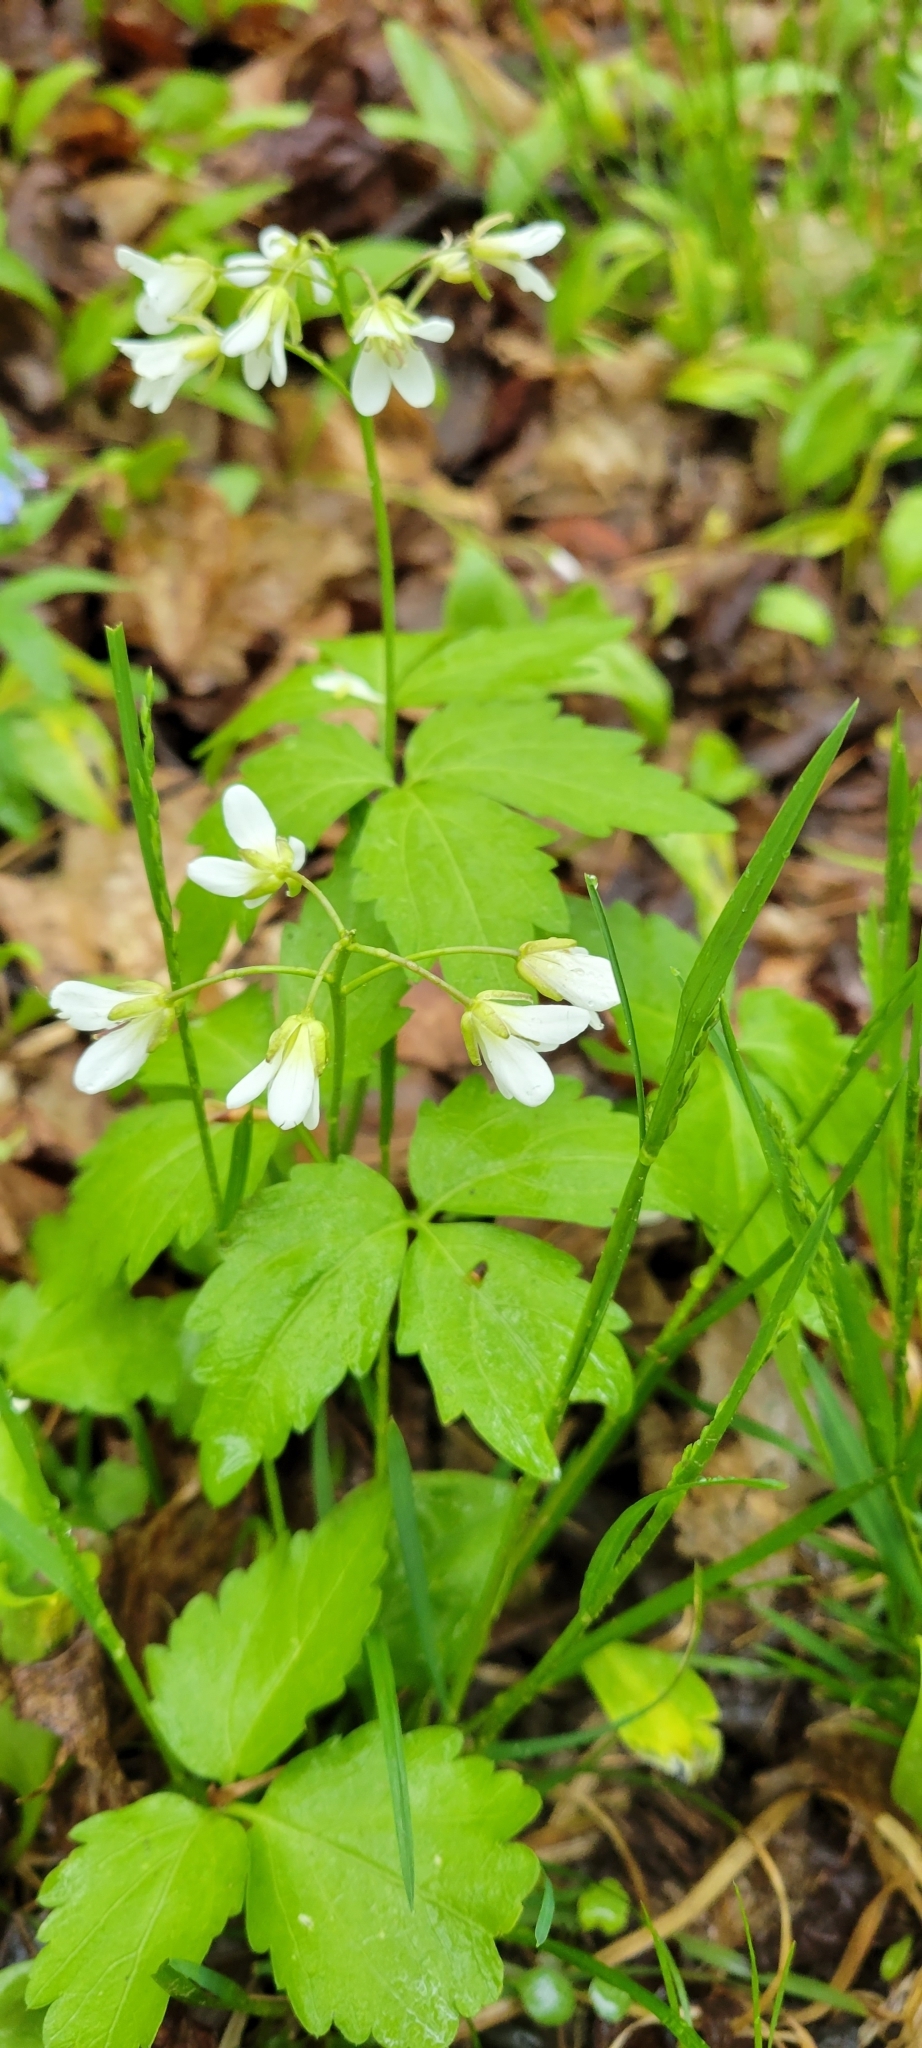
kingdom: Plantae
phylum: Tracheophyta
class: Magnoliopsida
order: Brassicales
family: Brassicaceae
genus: Cardamine
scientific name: Cardamine diphylla
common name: Broad-leaved toothwort
